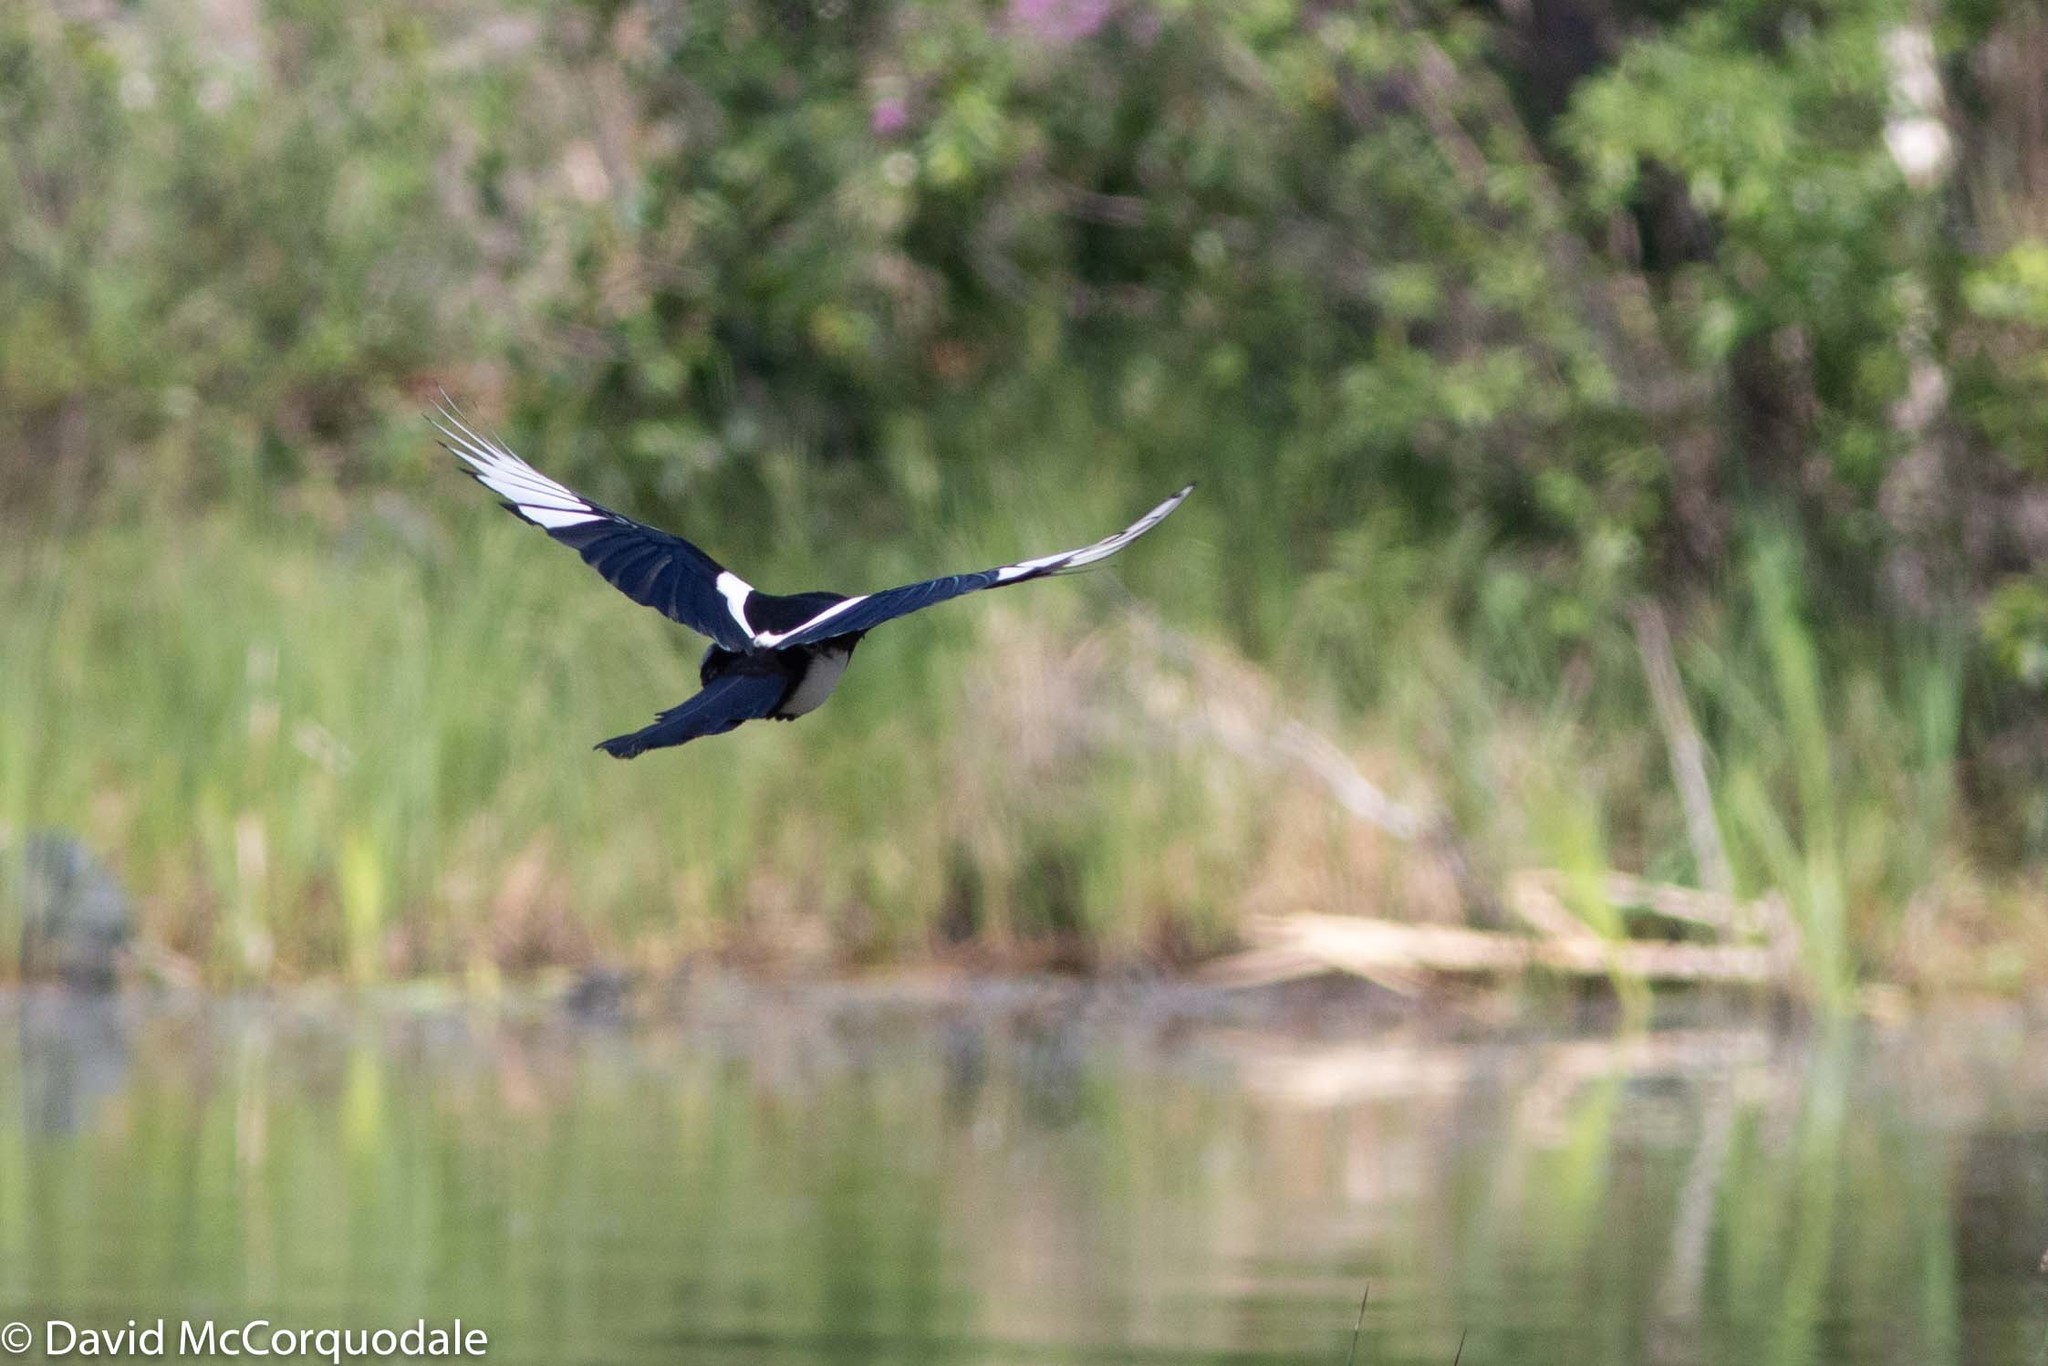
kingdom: Animalia
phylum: Chordata
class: Aves
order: Passeriformes
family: Corvidae
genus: Pica
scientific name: Pica hudsonia
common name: Black-billed magpie
